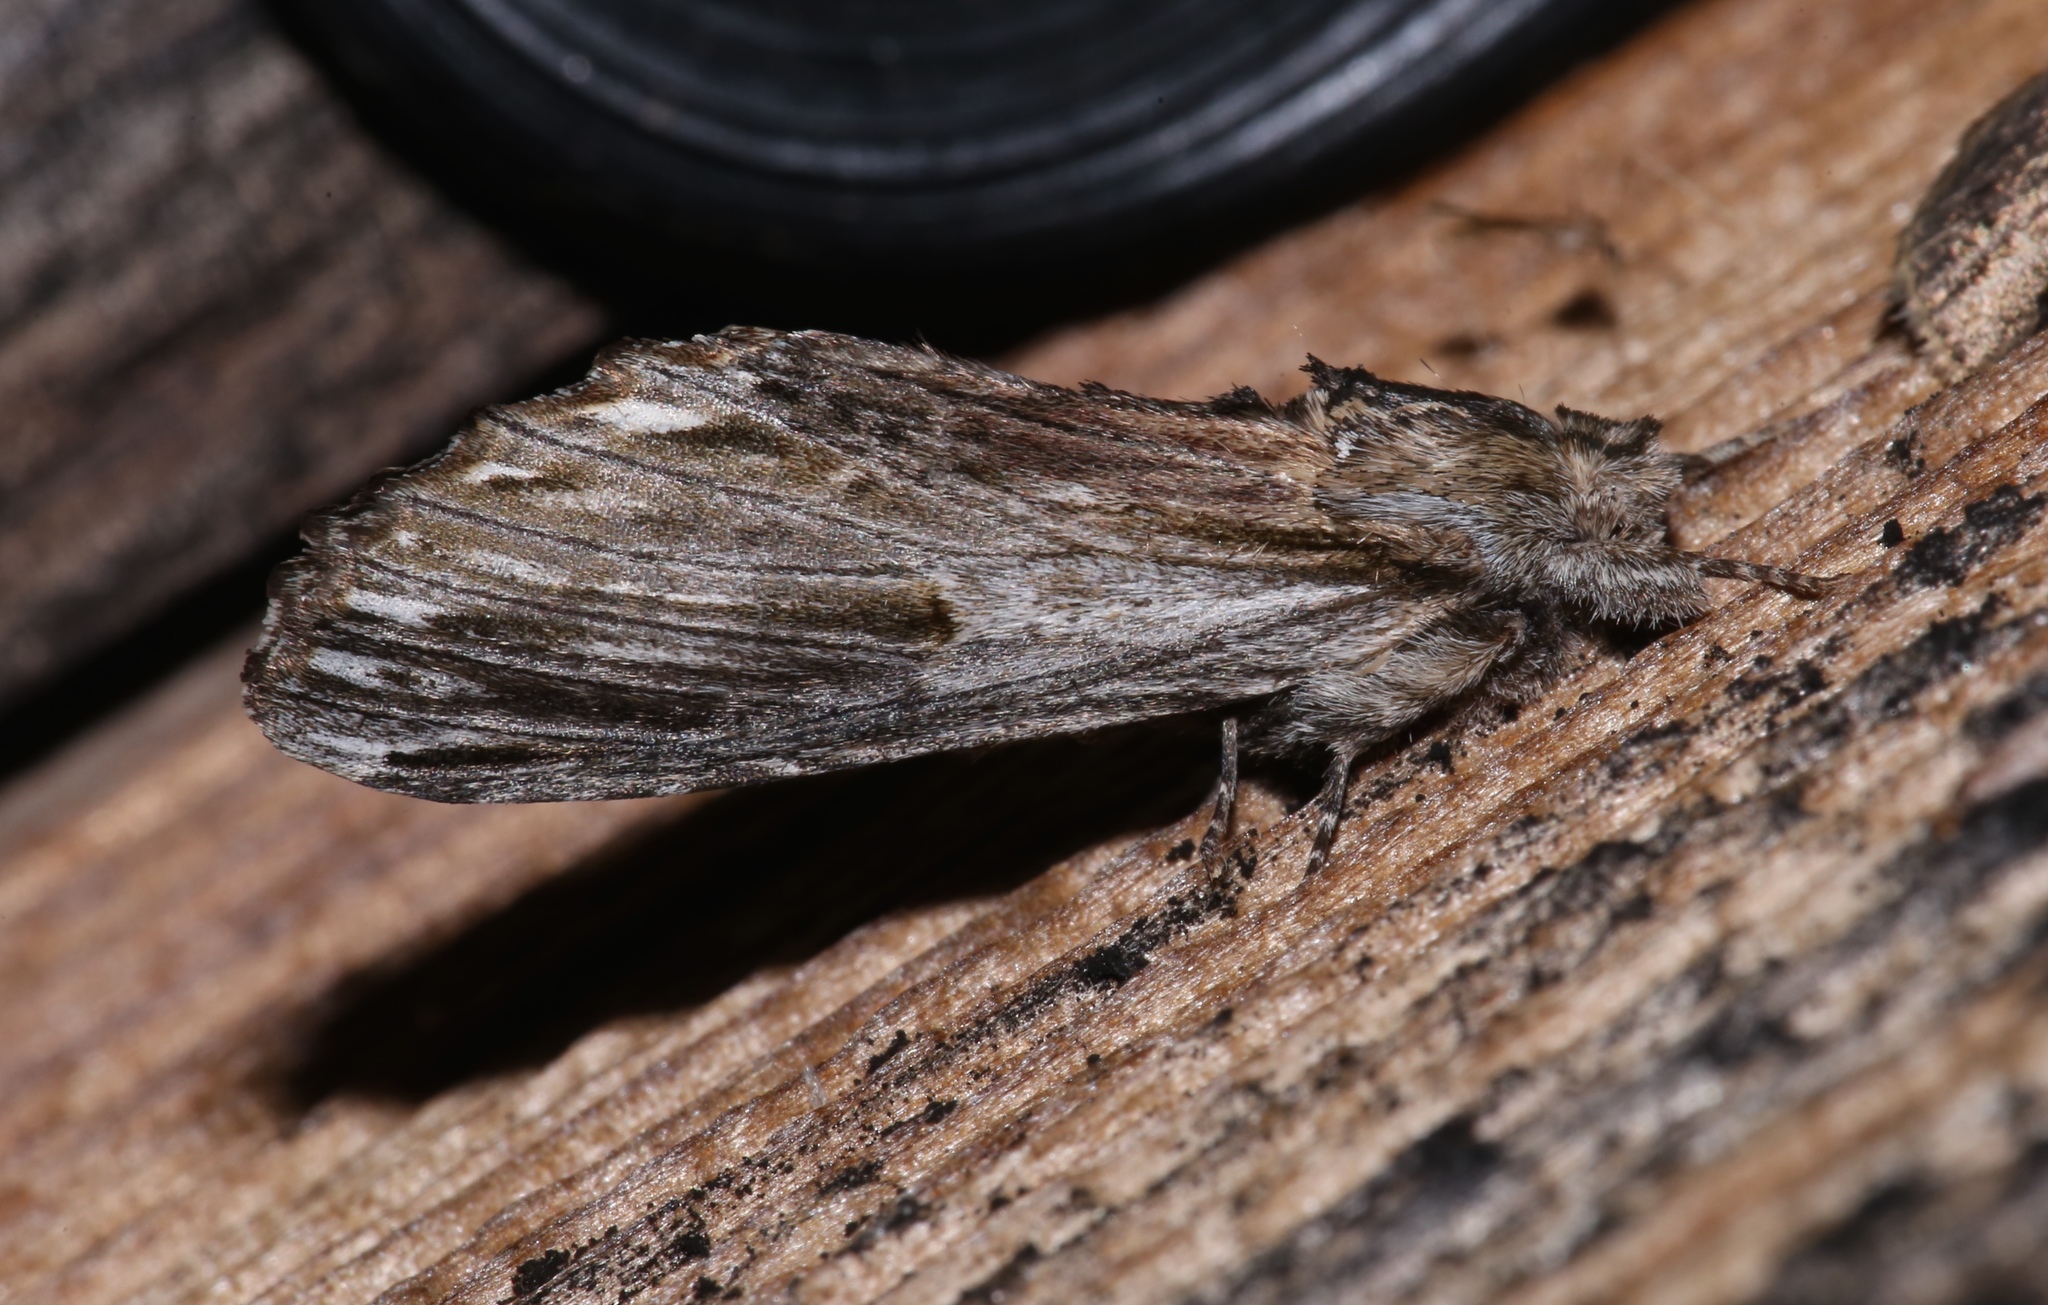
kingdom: Animalia
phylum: Arthropoda
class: Insecta
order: Lepidoptera
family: Notodontidae
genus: Oligocentria
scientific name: Oligocentria Ianassa lignicolor
